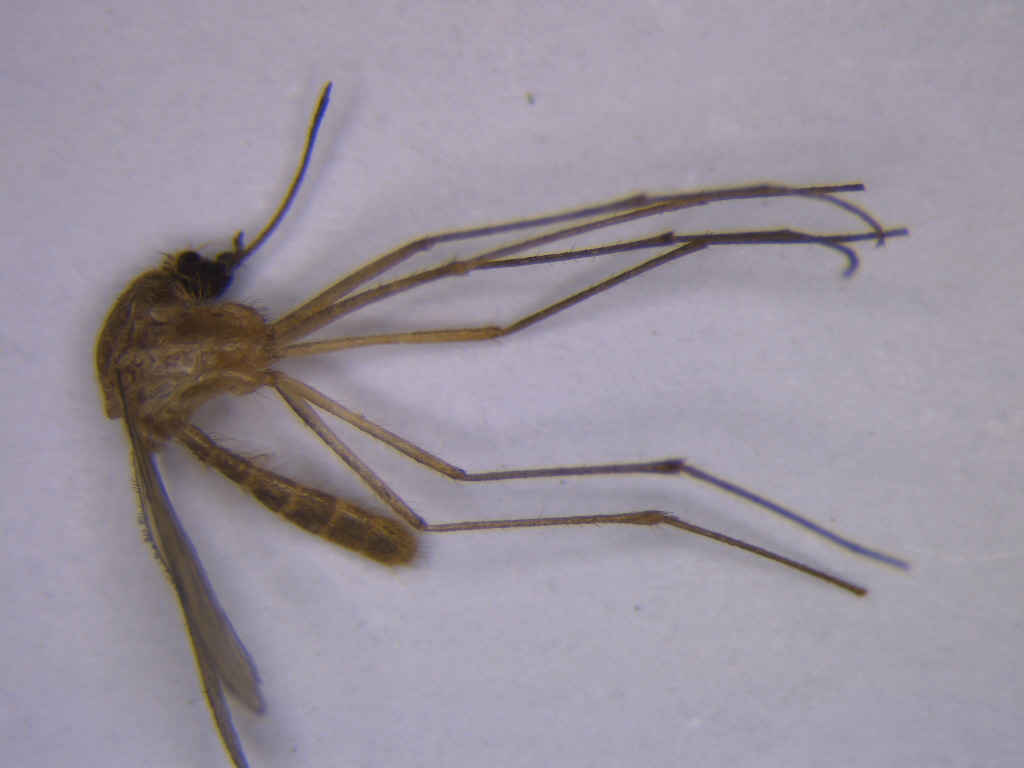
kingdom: Animalia
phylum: Arthropoda
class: Insecta
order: Diptera
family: Culicidae
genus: Culex
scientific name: Culex quinquefasciatus
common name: Southern house mosquito
